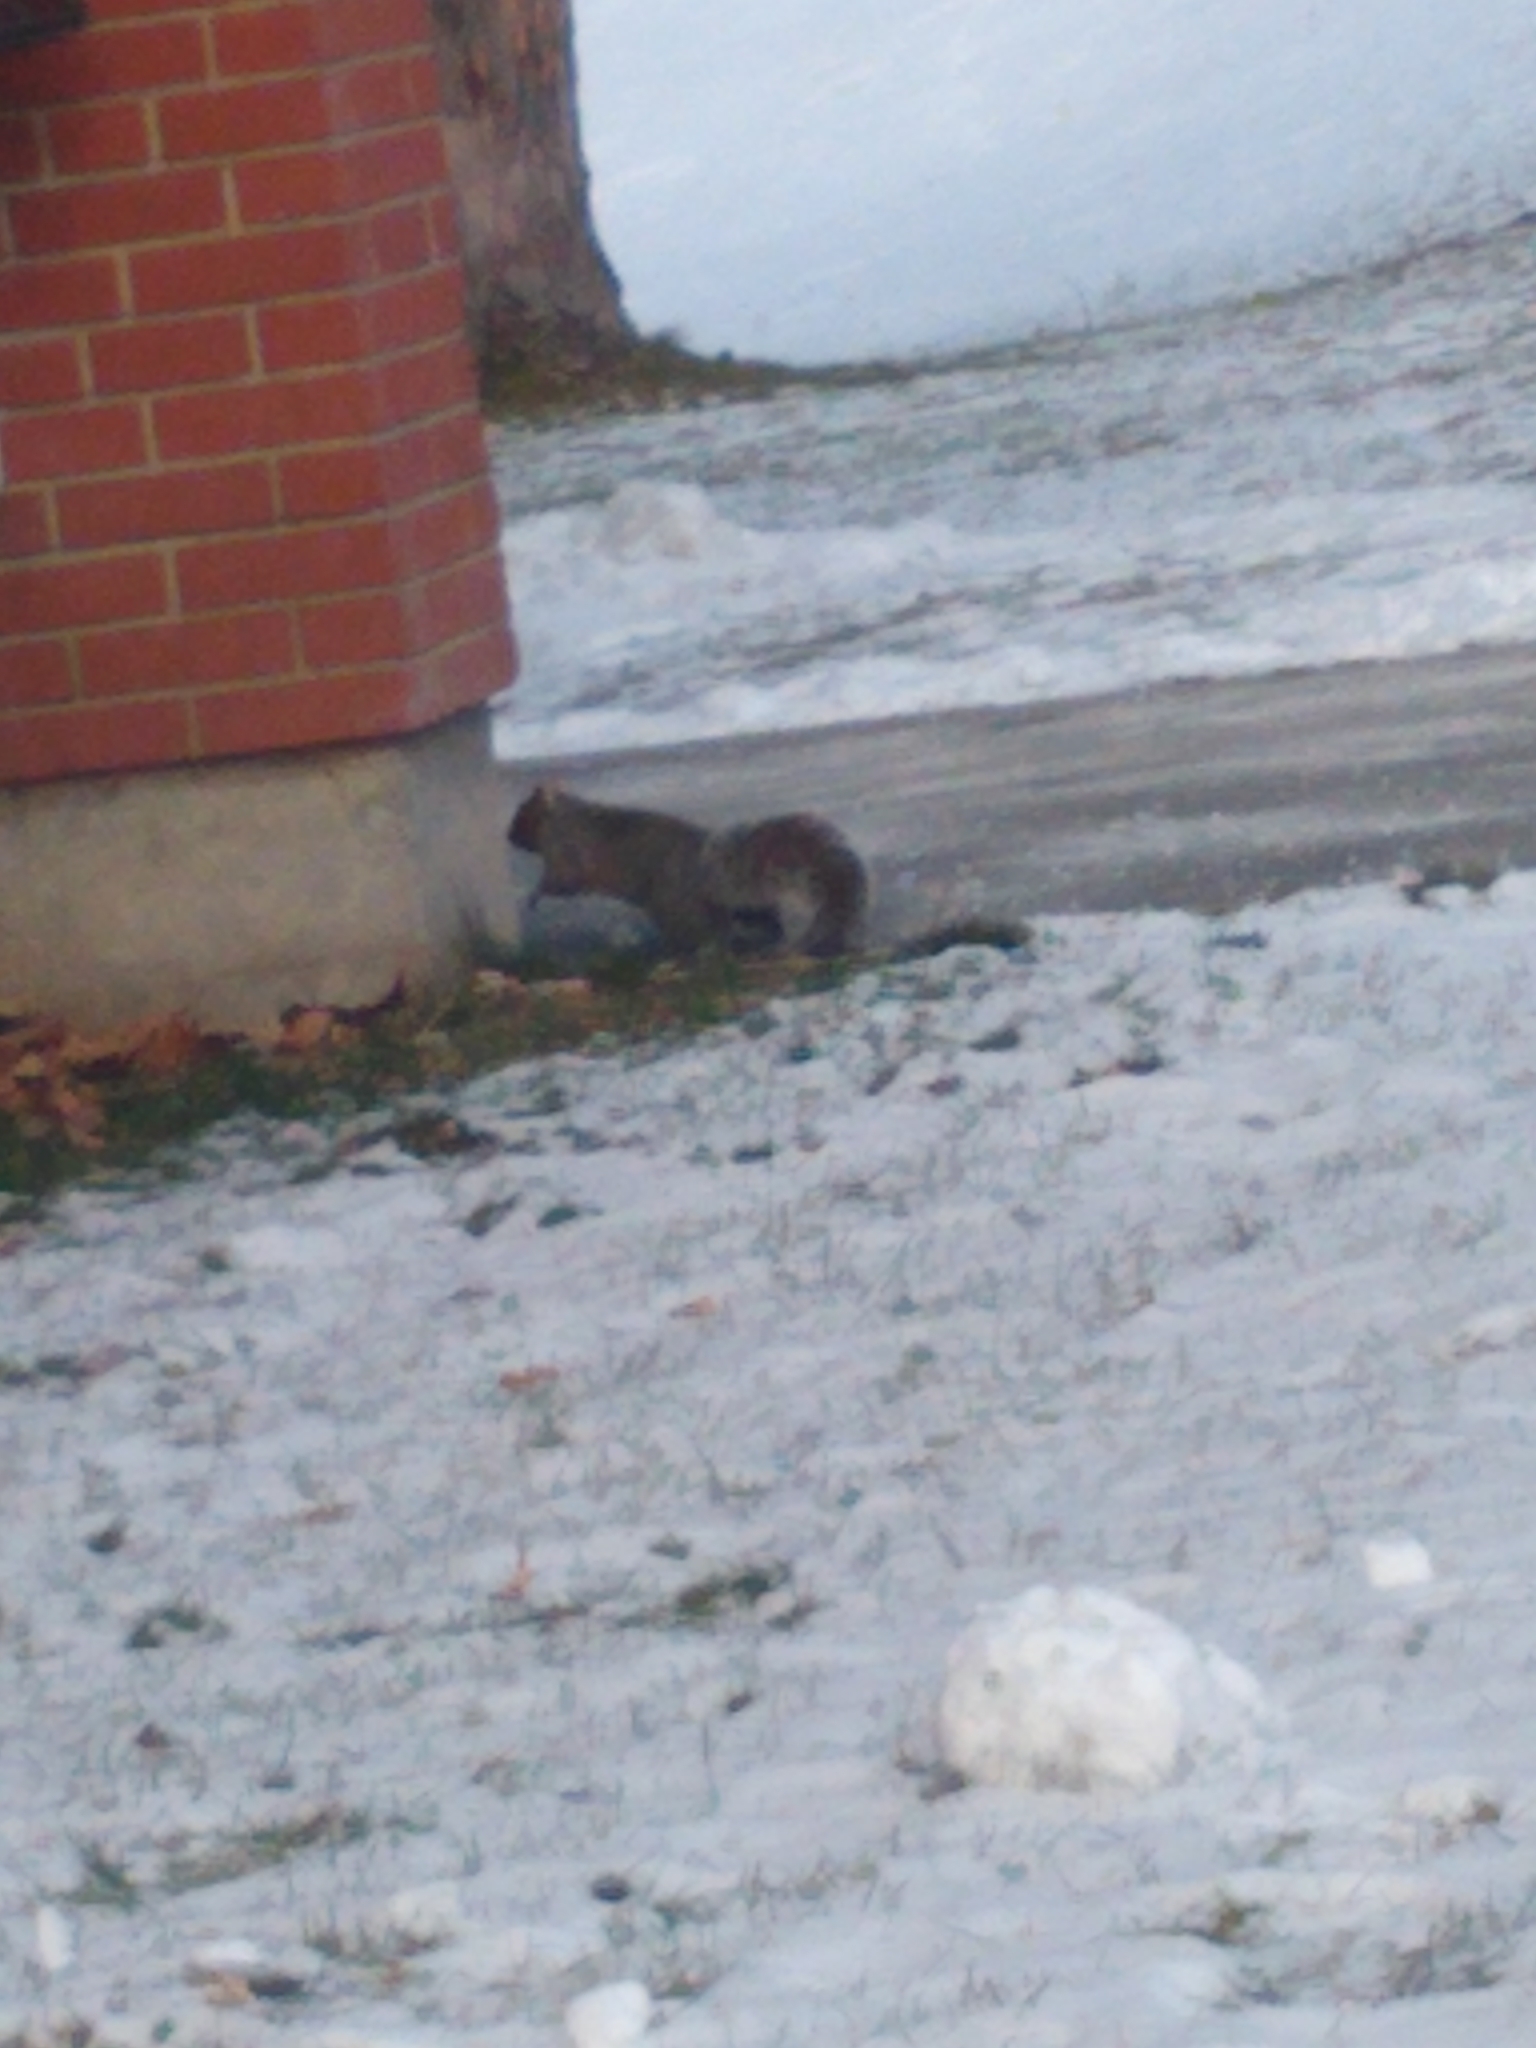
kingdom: Animalia
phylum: Chordata
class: Mammalia
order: Rodentia
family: Sciuridae
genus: Sciurus
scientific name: Sciurus carolinensis
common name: Eastern gray squirrel
